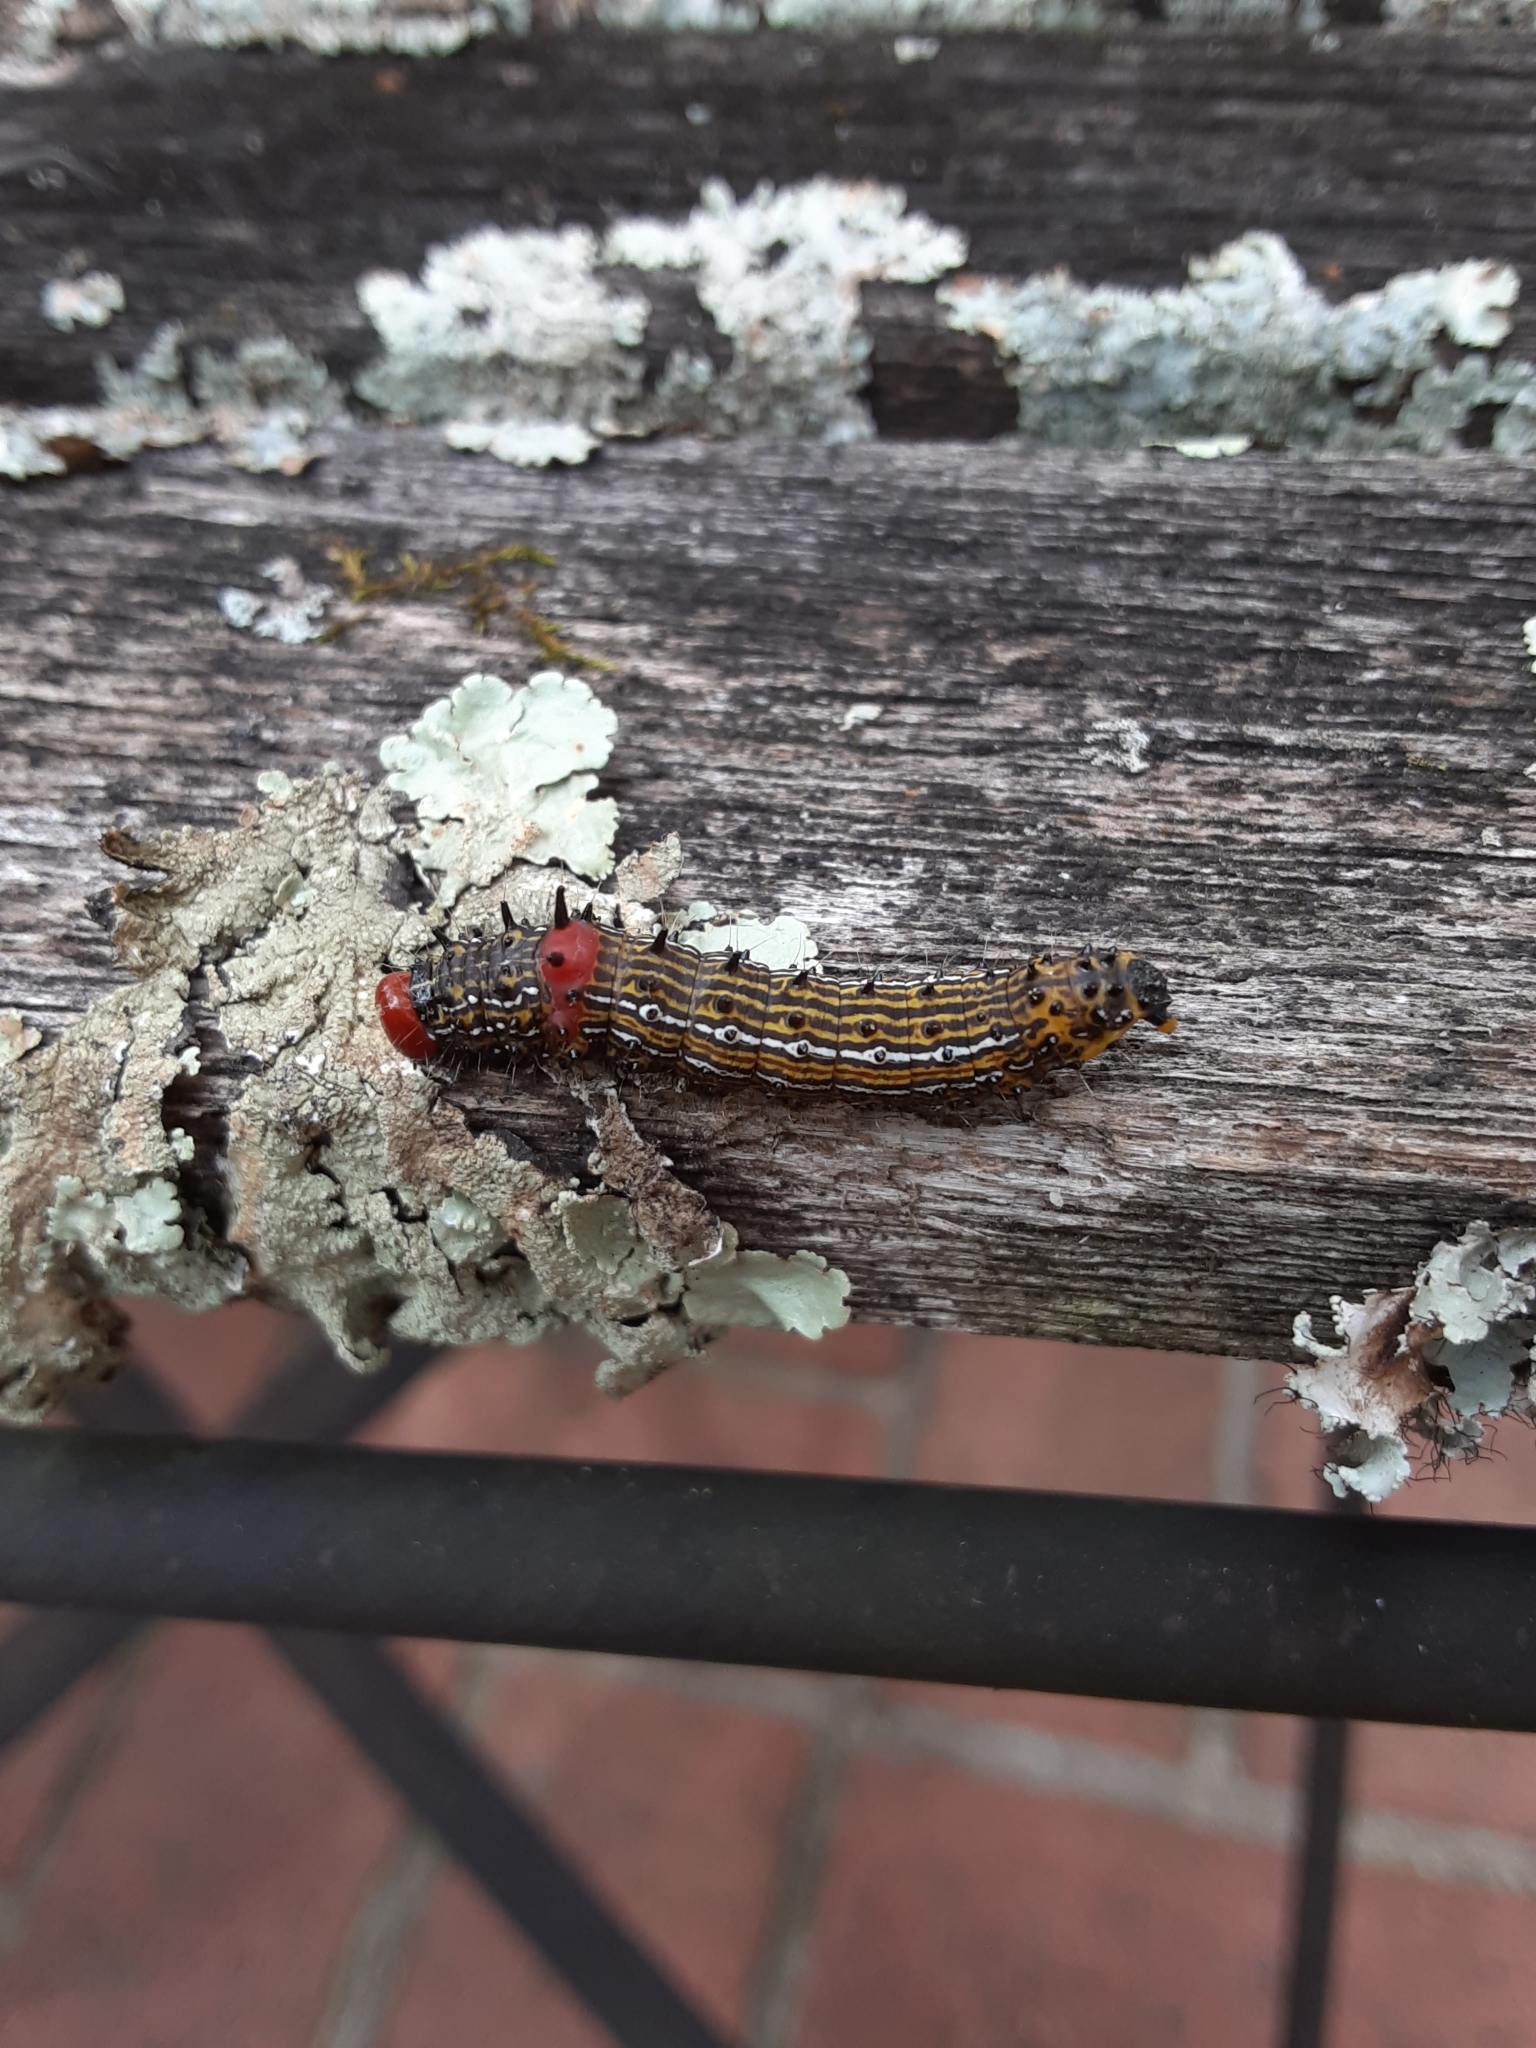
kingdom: Animalia
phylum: Arthropoda
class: Insecta
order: Lepidoptera
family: Notodontidae
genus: Schizura
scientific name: Schizura
